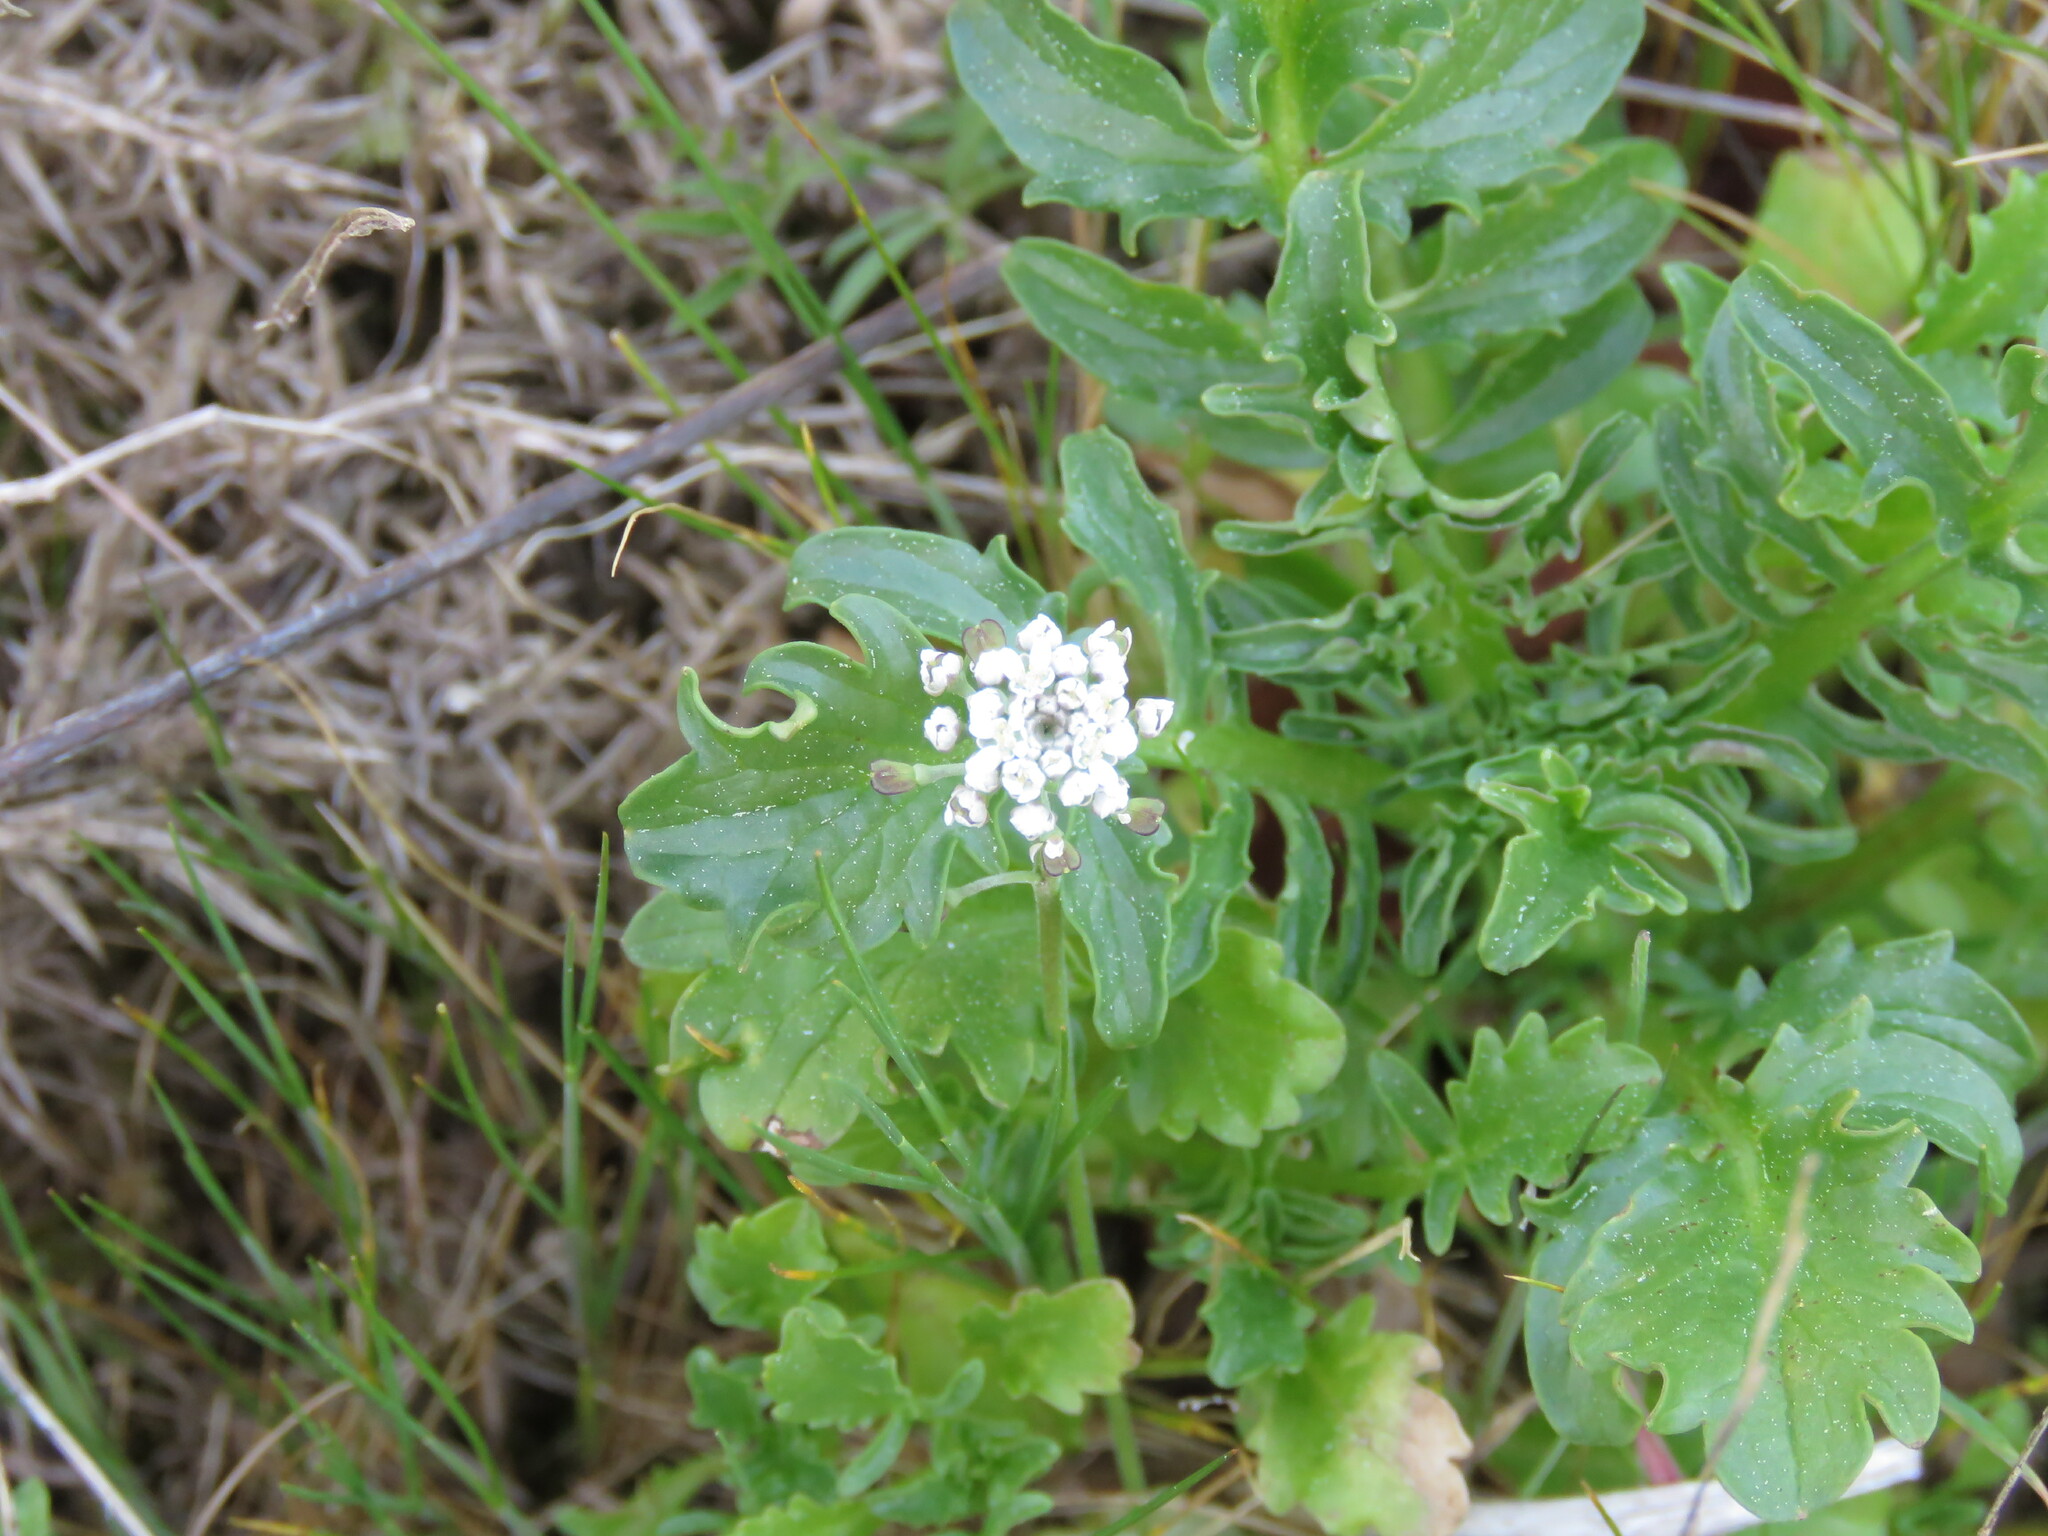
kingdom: Plantae
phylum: Tracheophyta
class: Magnoliopsida
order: Dipsacales
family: Caprifoliaceae
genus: Centranthus
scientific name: Centranthus calcitrapae
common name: Annual valerian
